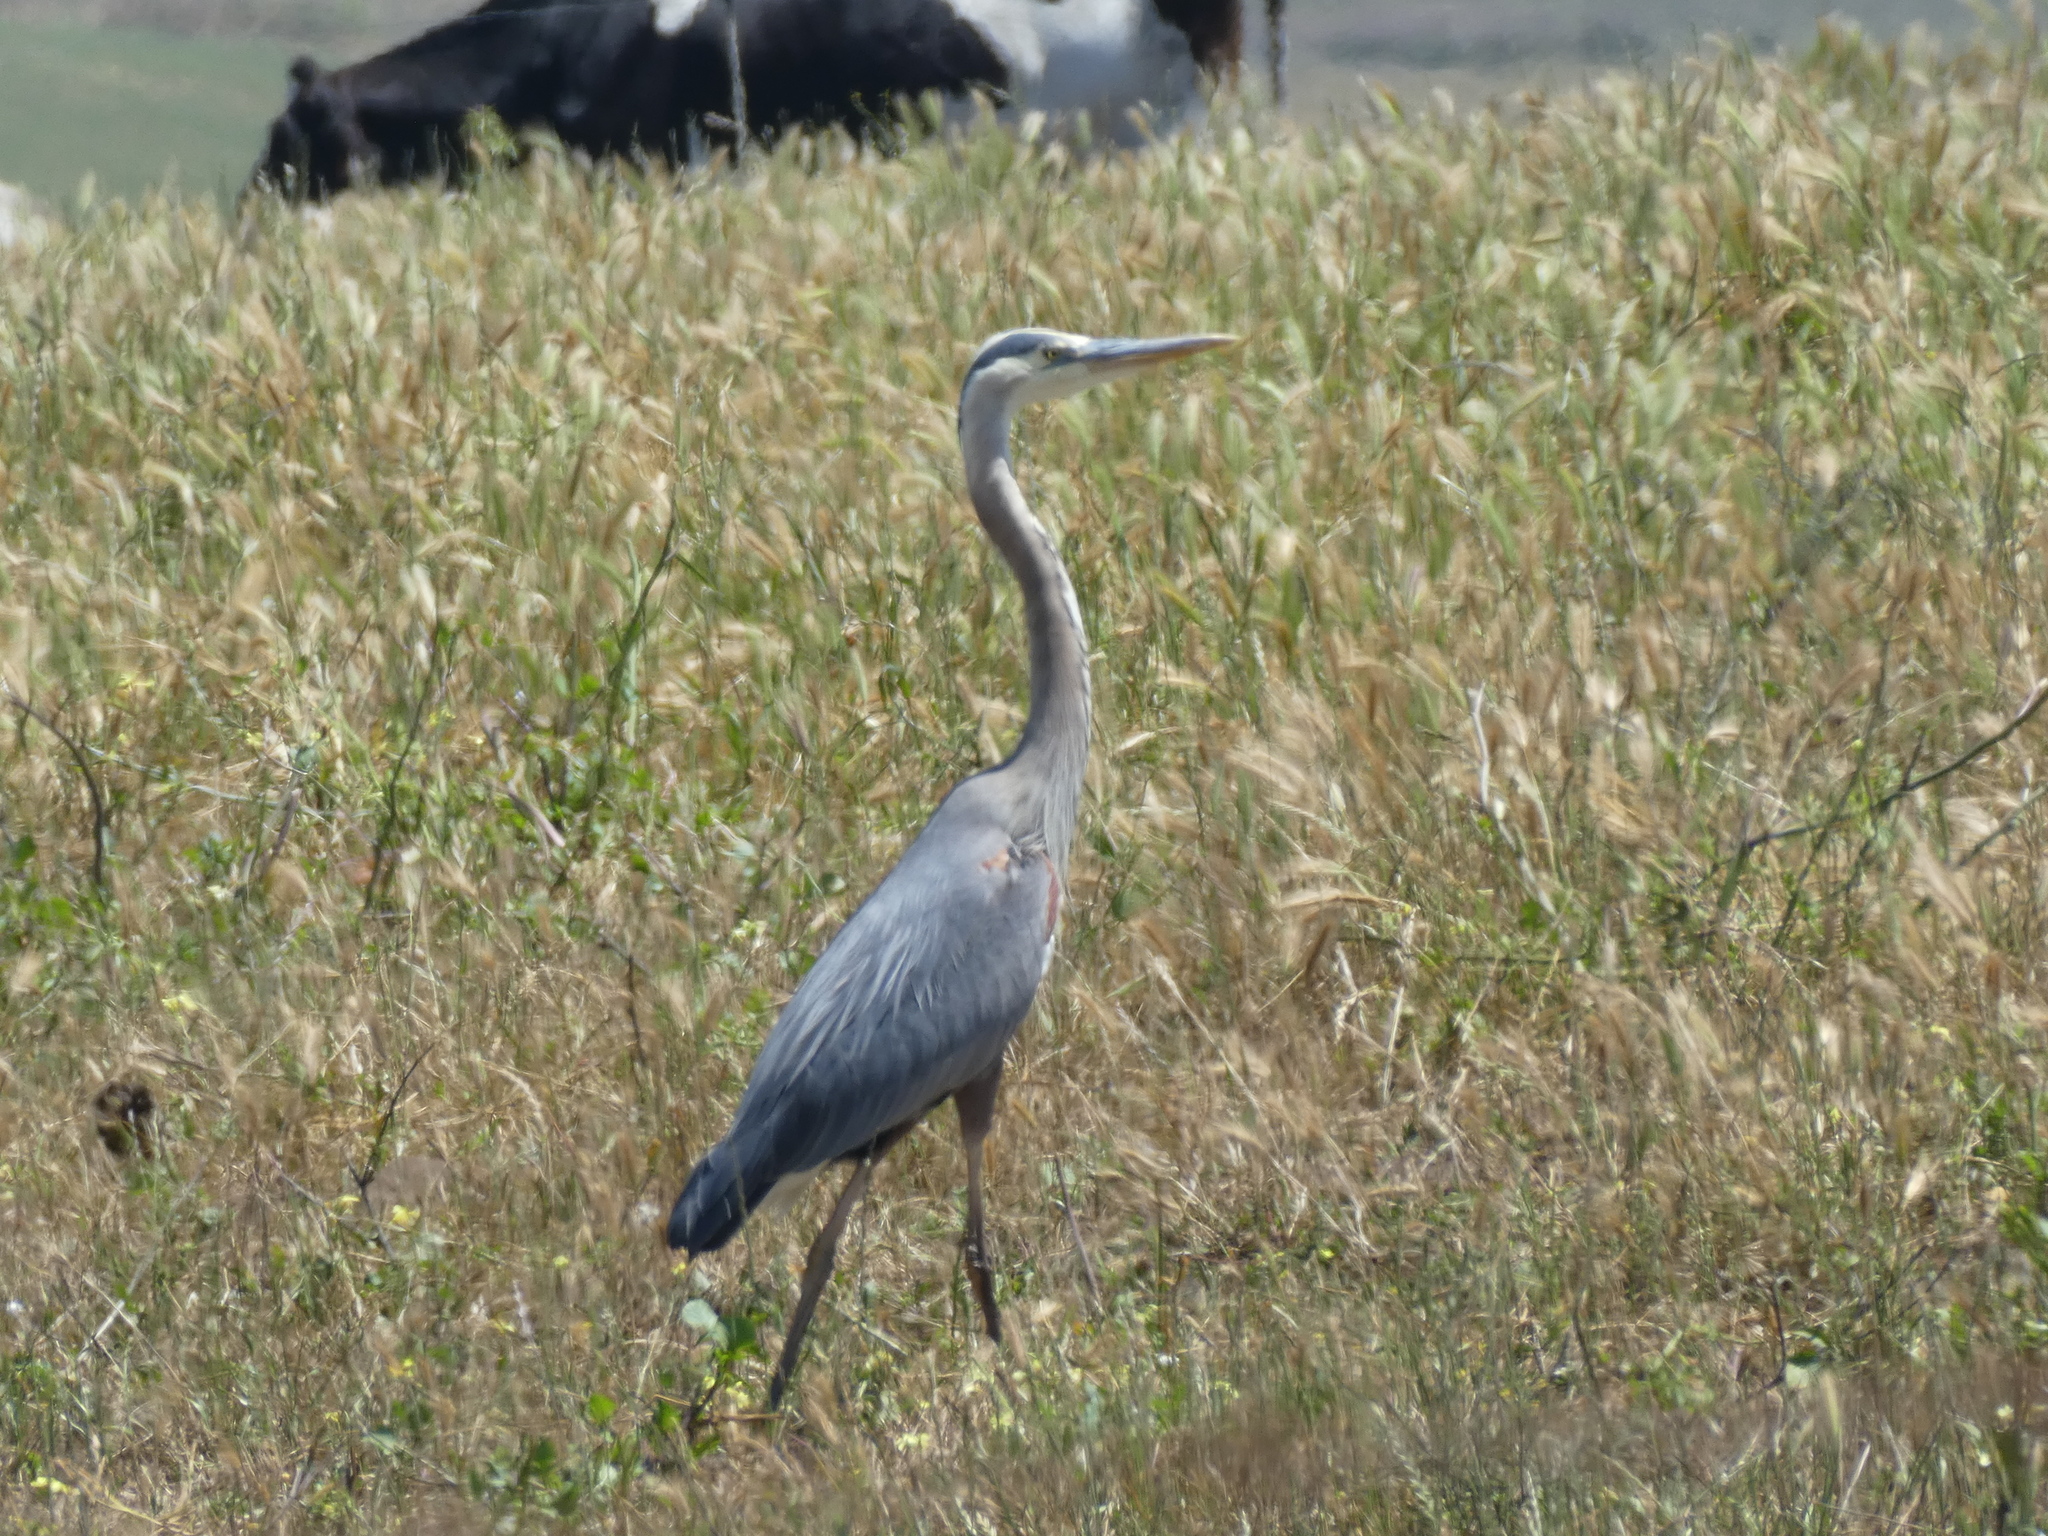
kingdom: Animalia
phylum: Chordata
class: Aves
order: Pelecaniformes
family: Ardeidae
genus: Ardea
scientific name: Ardea herodias
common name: Great blue heron
